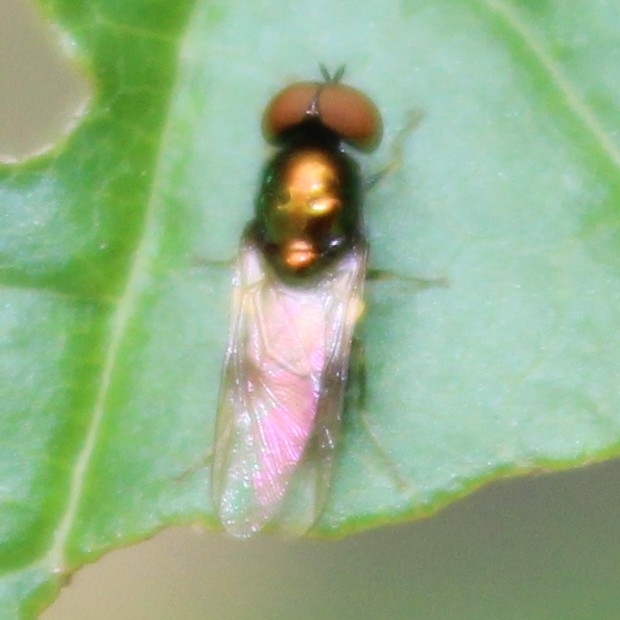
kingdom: Animalia
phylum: Arthropoda
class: Insecta
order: Diptera
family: Stratiomyidae
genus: Microchrysa
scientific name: Microchrysa polita
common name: Black-horned gem
